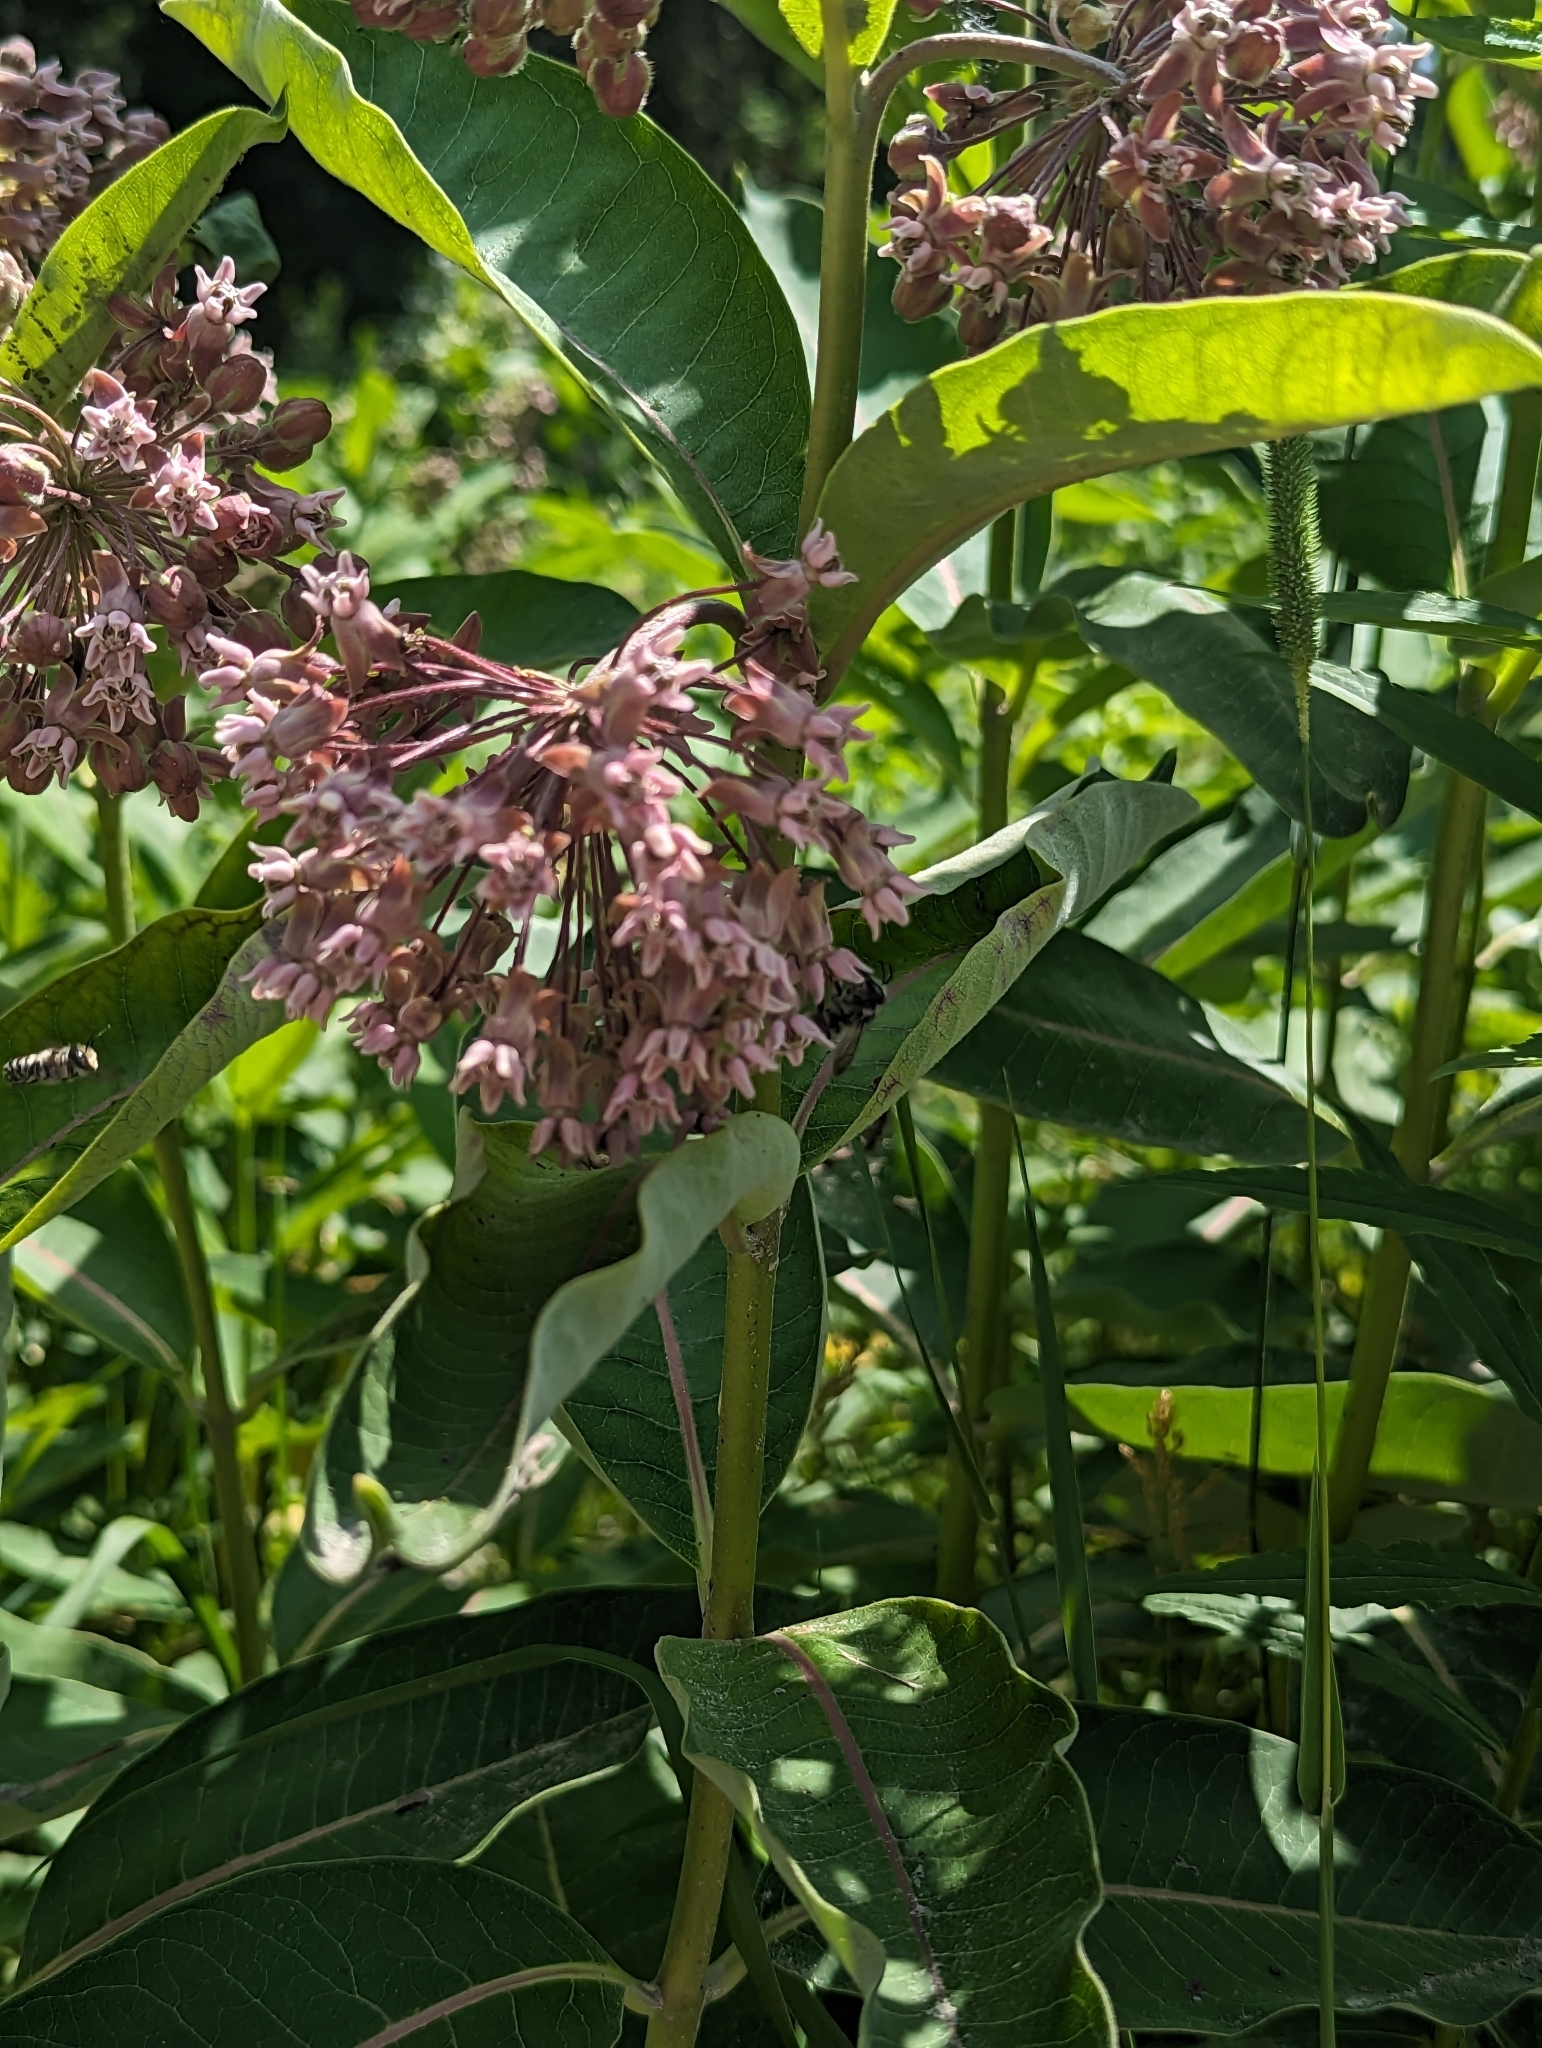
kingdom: Plantae
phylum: Tracheophyta
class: Magnoliopsida
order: Gentianales
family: Apocynaceae
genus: Asclepias
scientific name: Asclepias syriaca
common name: Common milkweed
